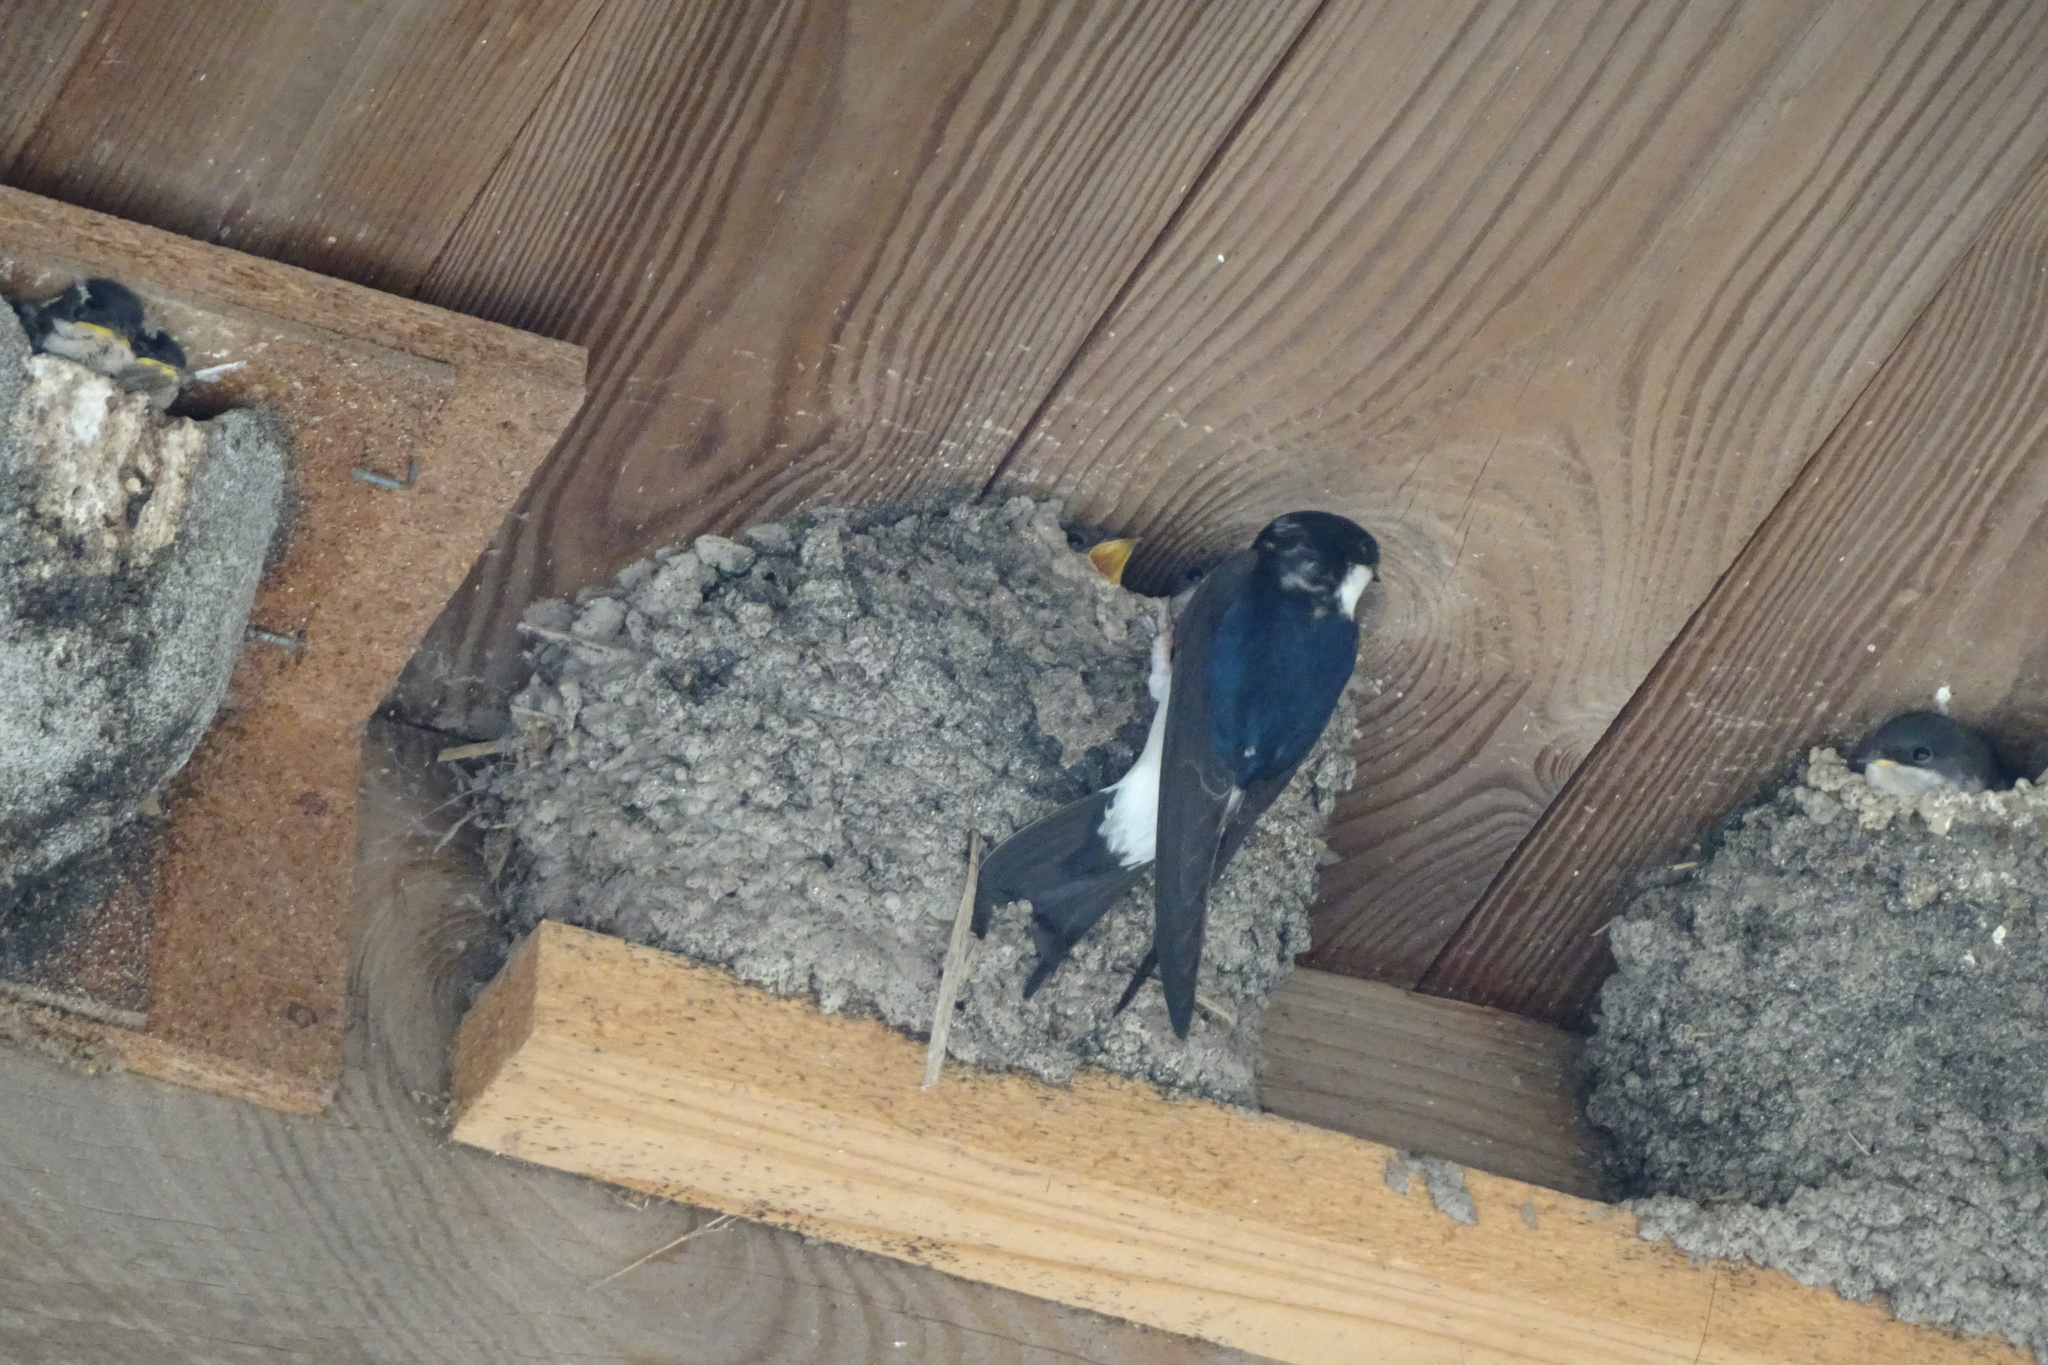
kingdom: Animalia
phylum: Chordata
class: Aves
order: Passeriformes
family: Hirundinidae
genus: Delichon
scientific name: Delichon urbicum
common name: Common house martin
